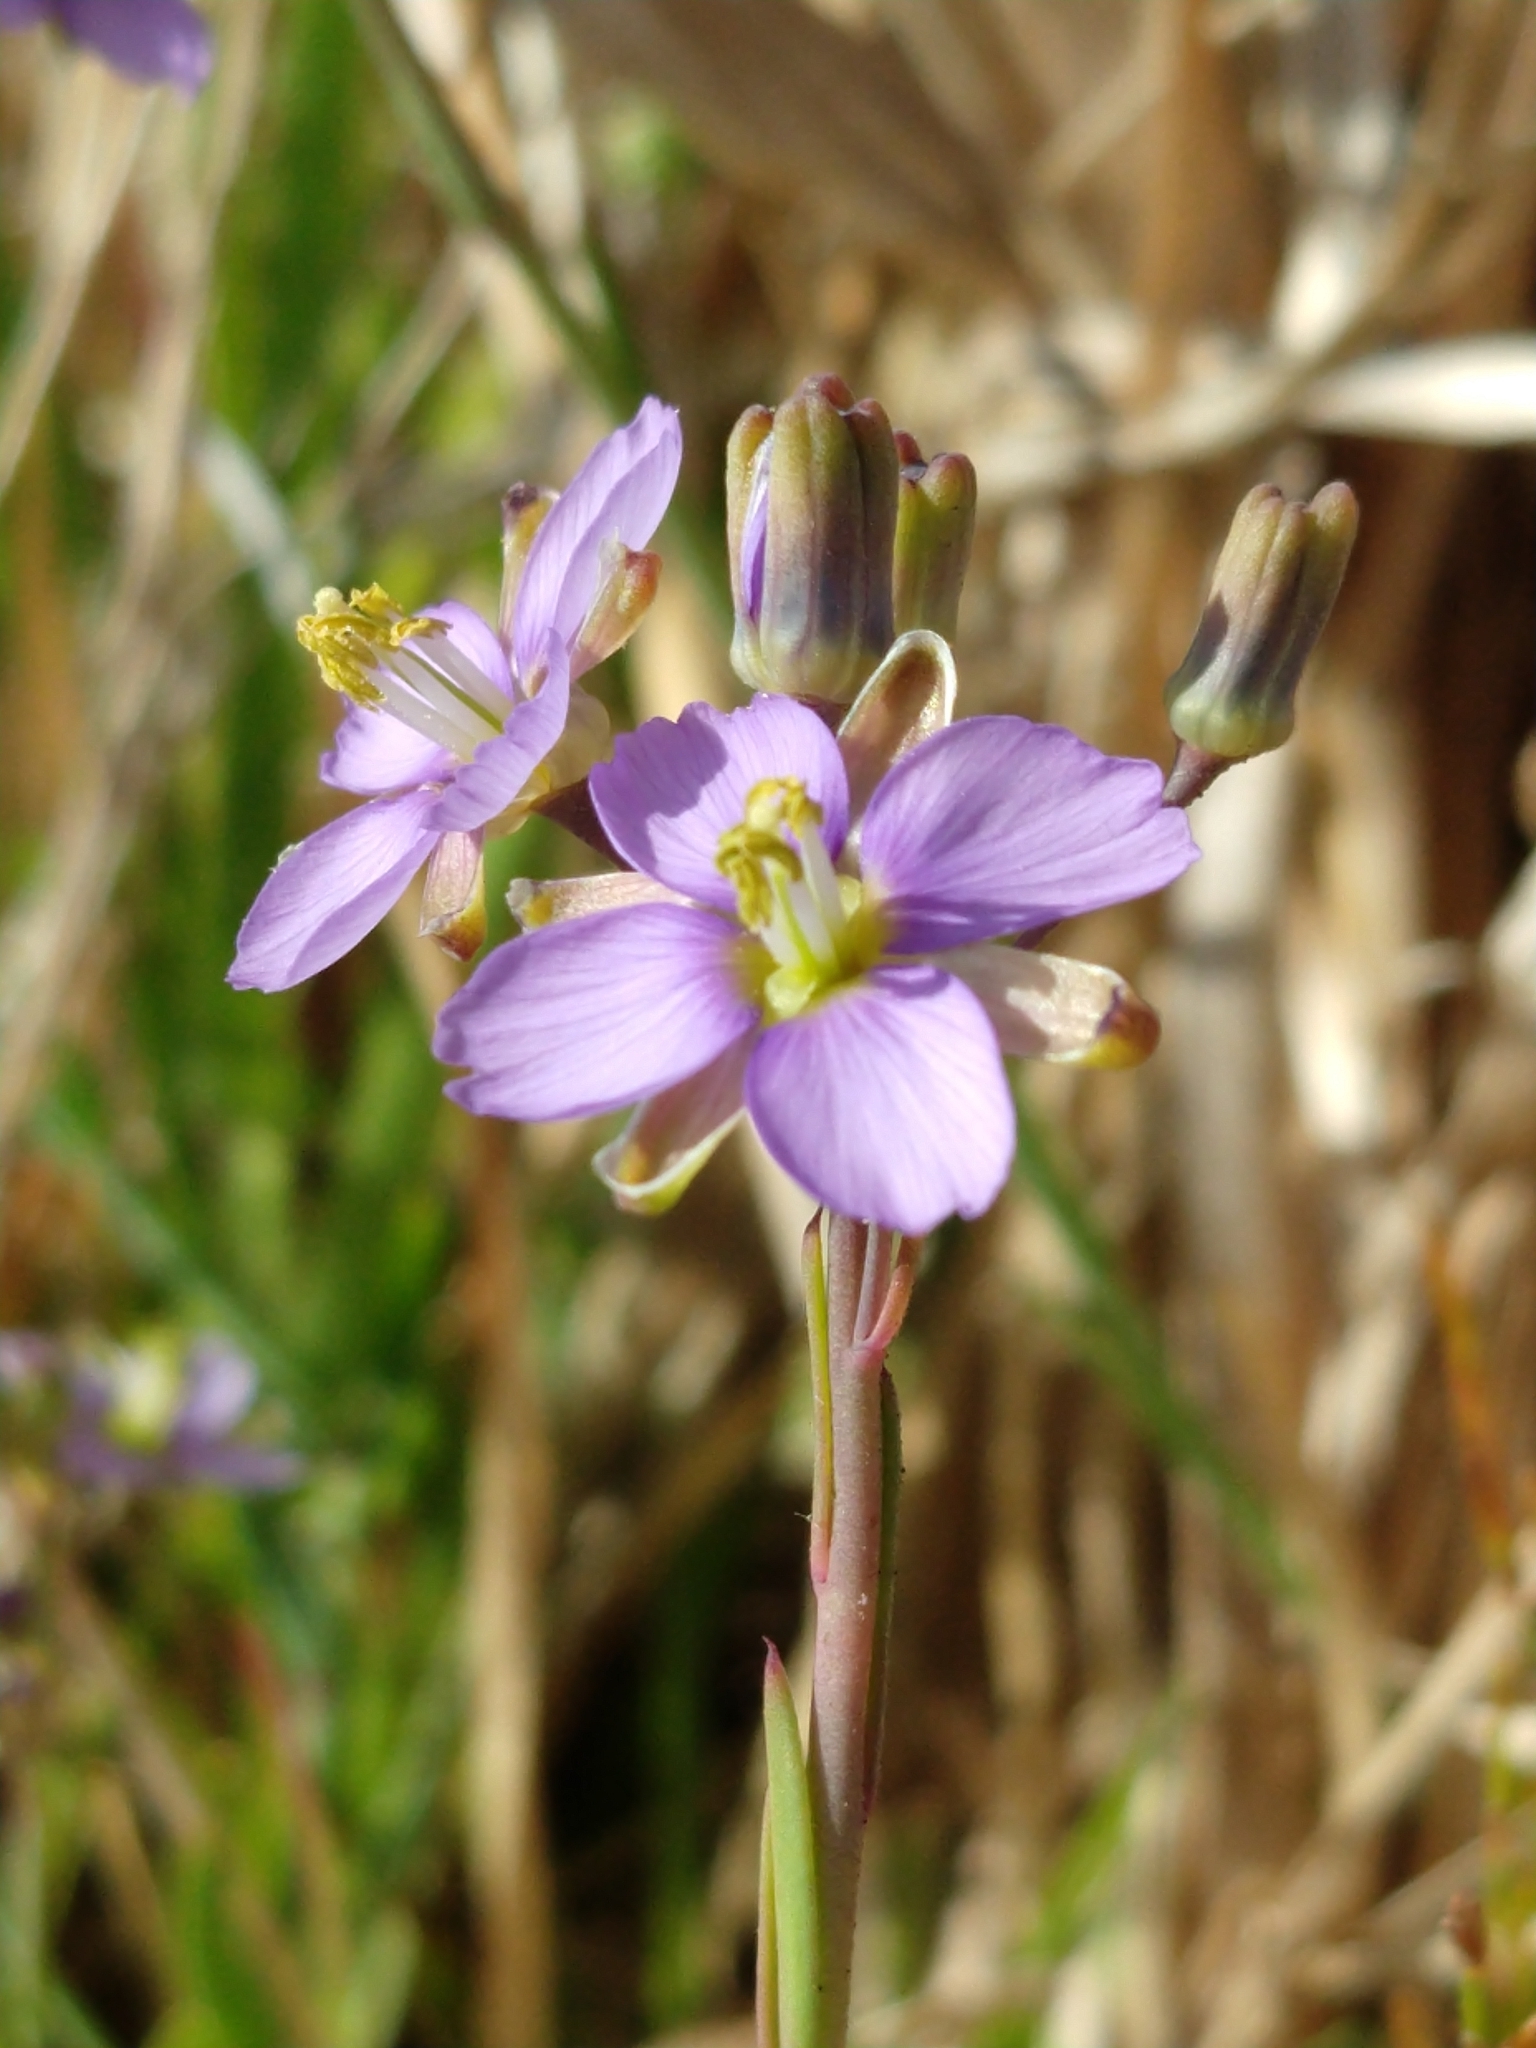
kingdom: Plantae
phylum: Tracheophyta
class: Magnoliopsida
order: Brassicales
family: Brassicaceae
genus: Heliophila
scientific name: Heliophila linearis
